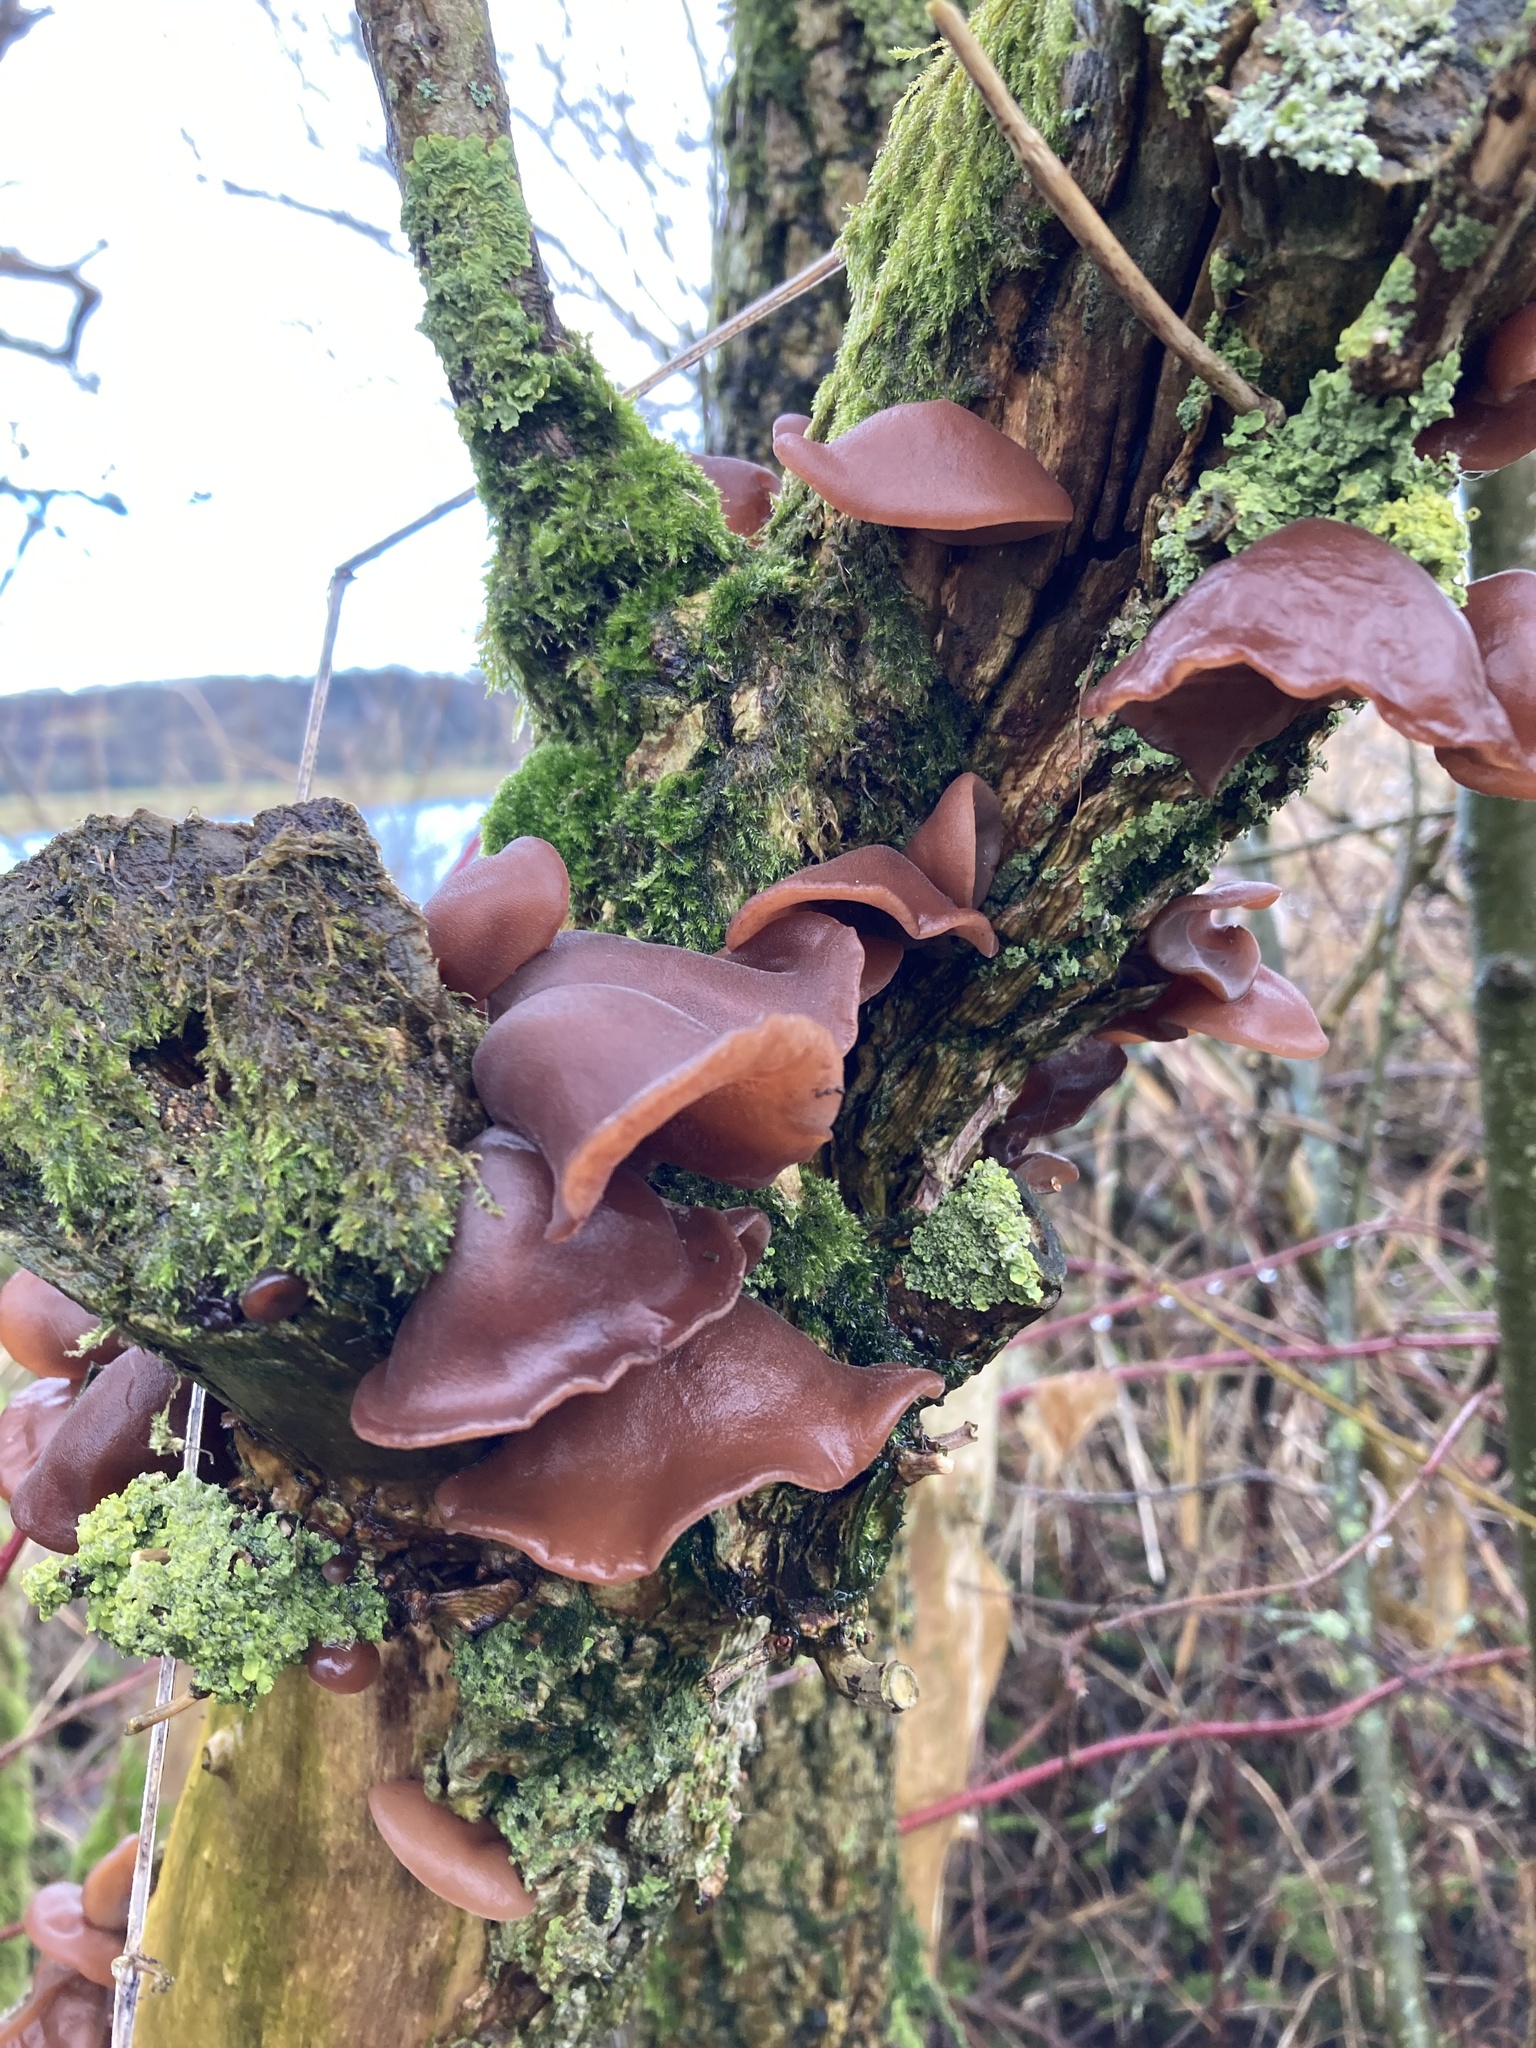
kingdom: Fungi
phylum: Basidiomycota
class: Agaricomycetes
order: Auriculariales
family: Auriculariaceae
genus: Auricularia
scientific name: Auricularia auricula-judae
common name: Jelly ear
